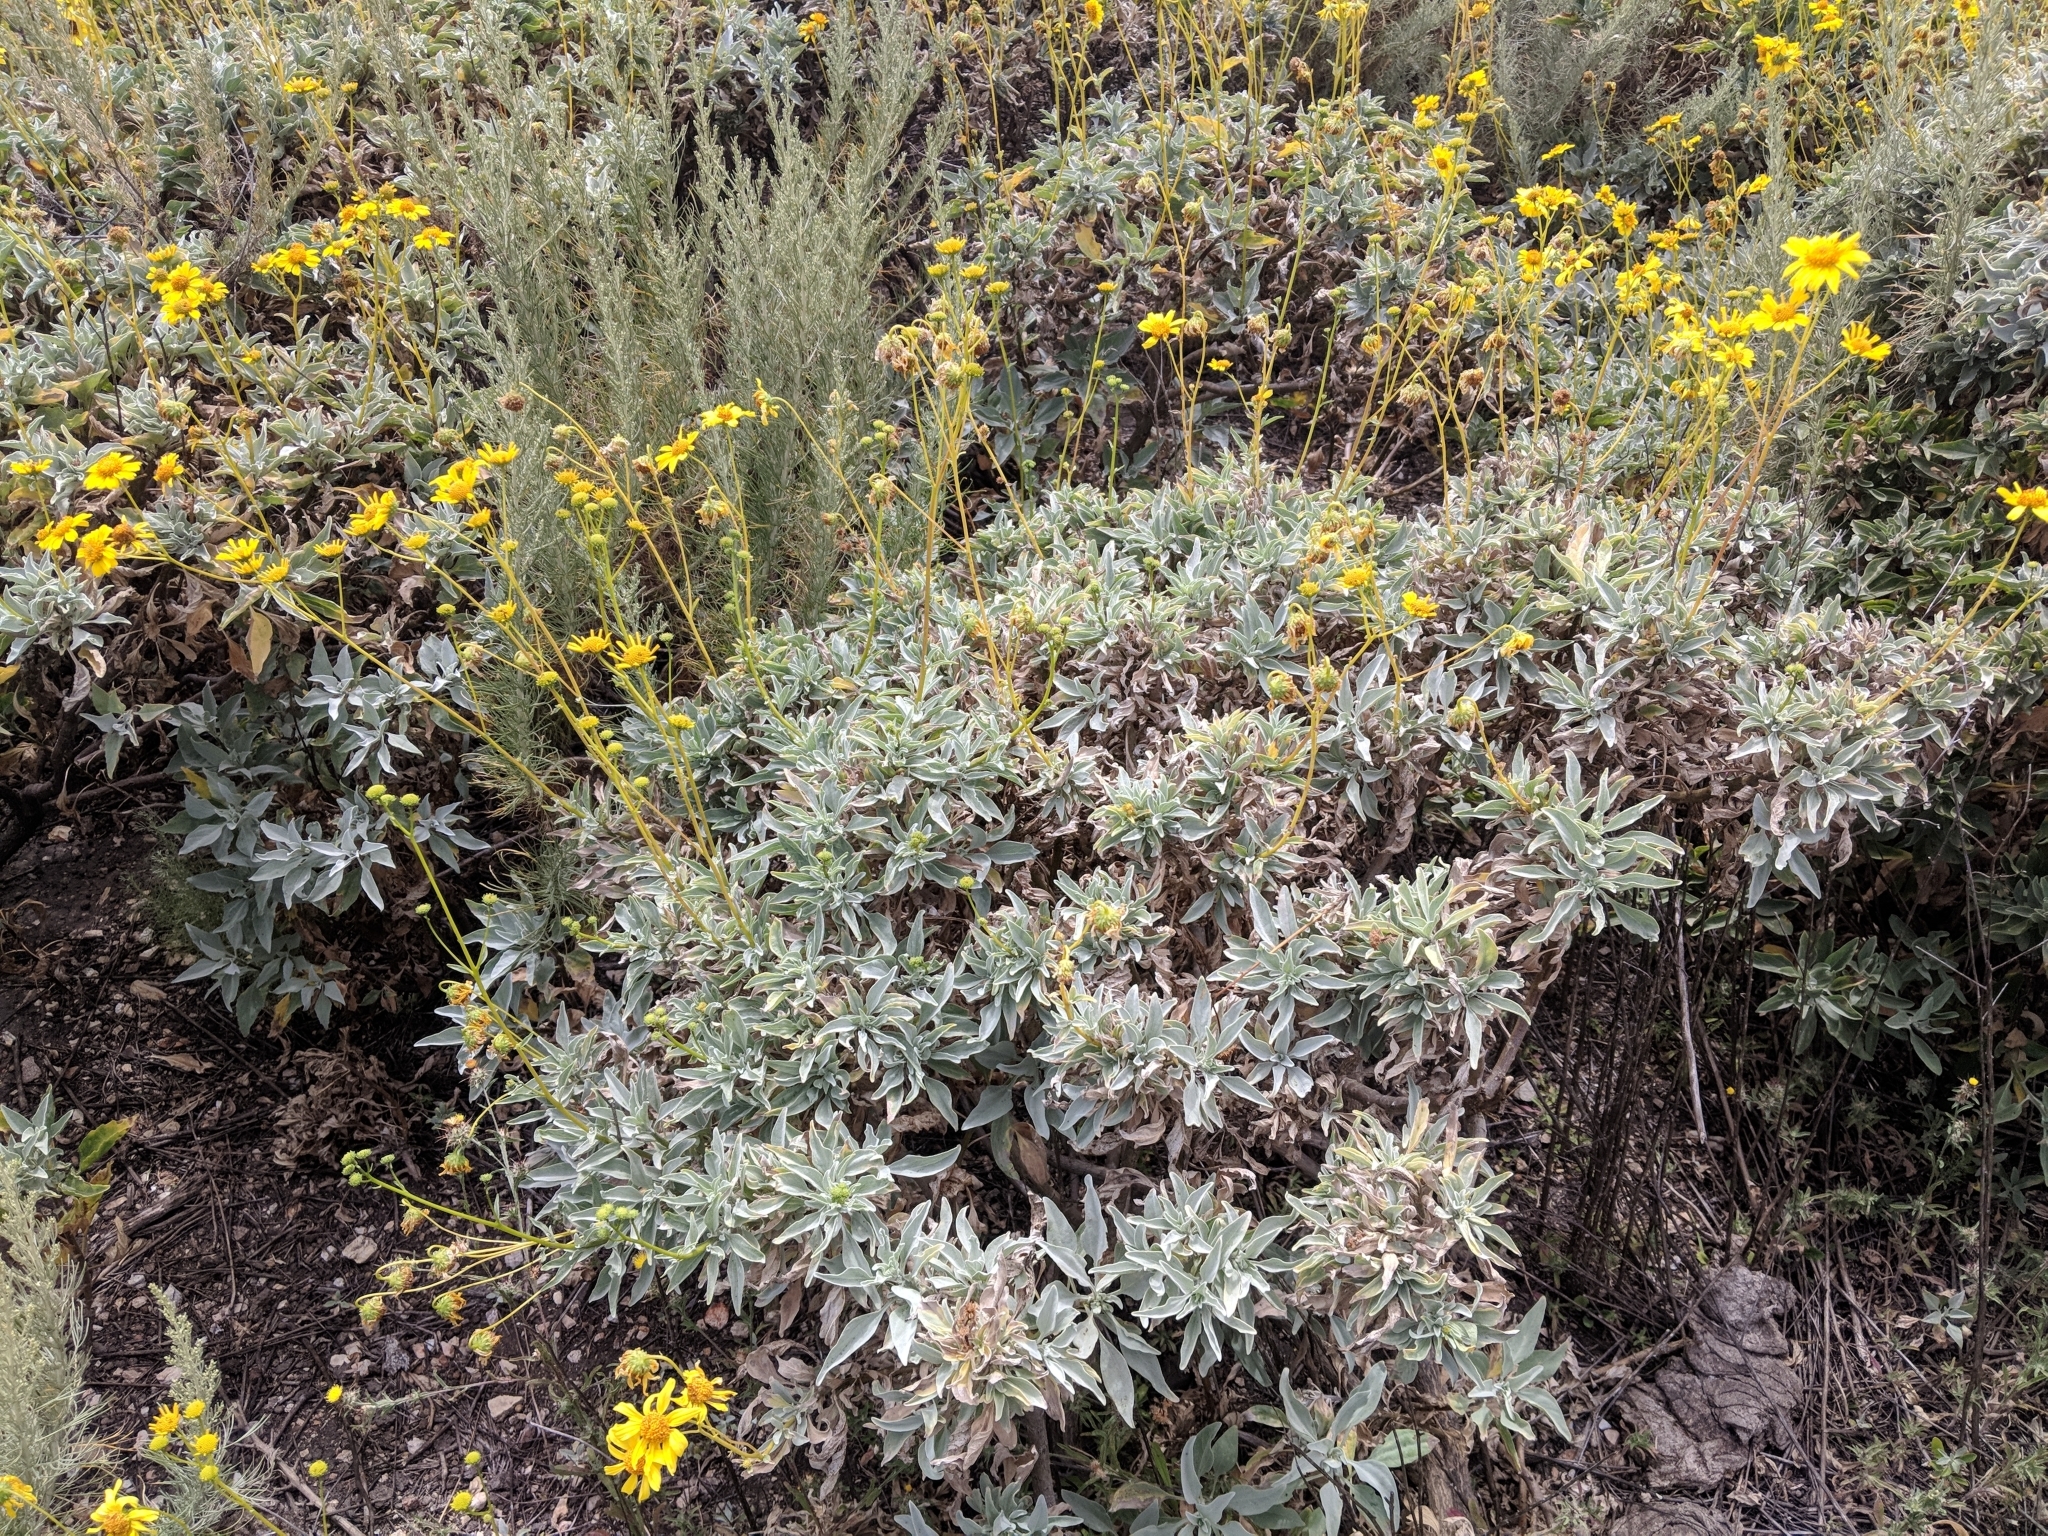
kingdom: Plantae
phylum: Tracheophyta
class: Magnoliopsida
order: Asterales
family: Asteraceae
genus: Encelia
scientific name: Encelia farinosa
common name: Brittlebush
